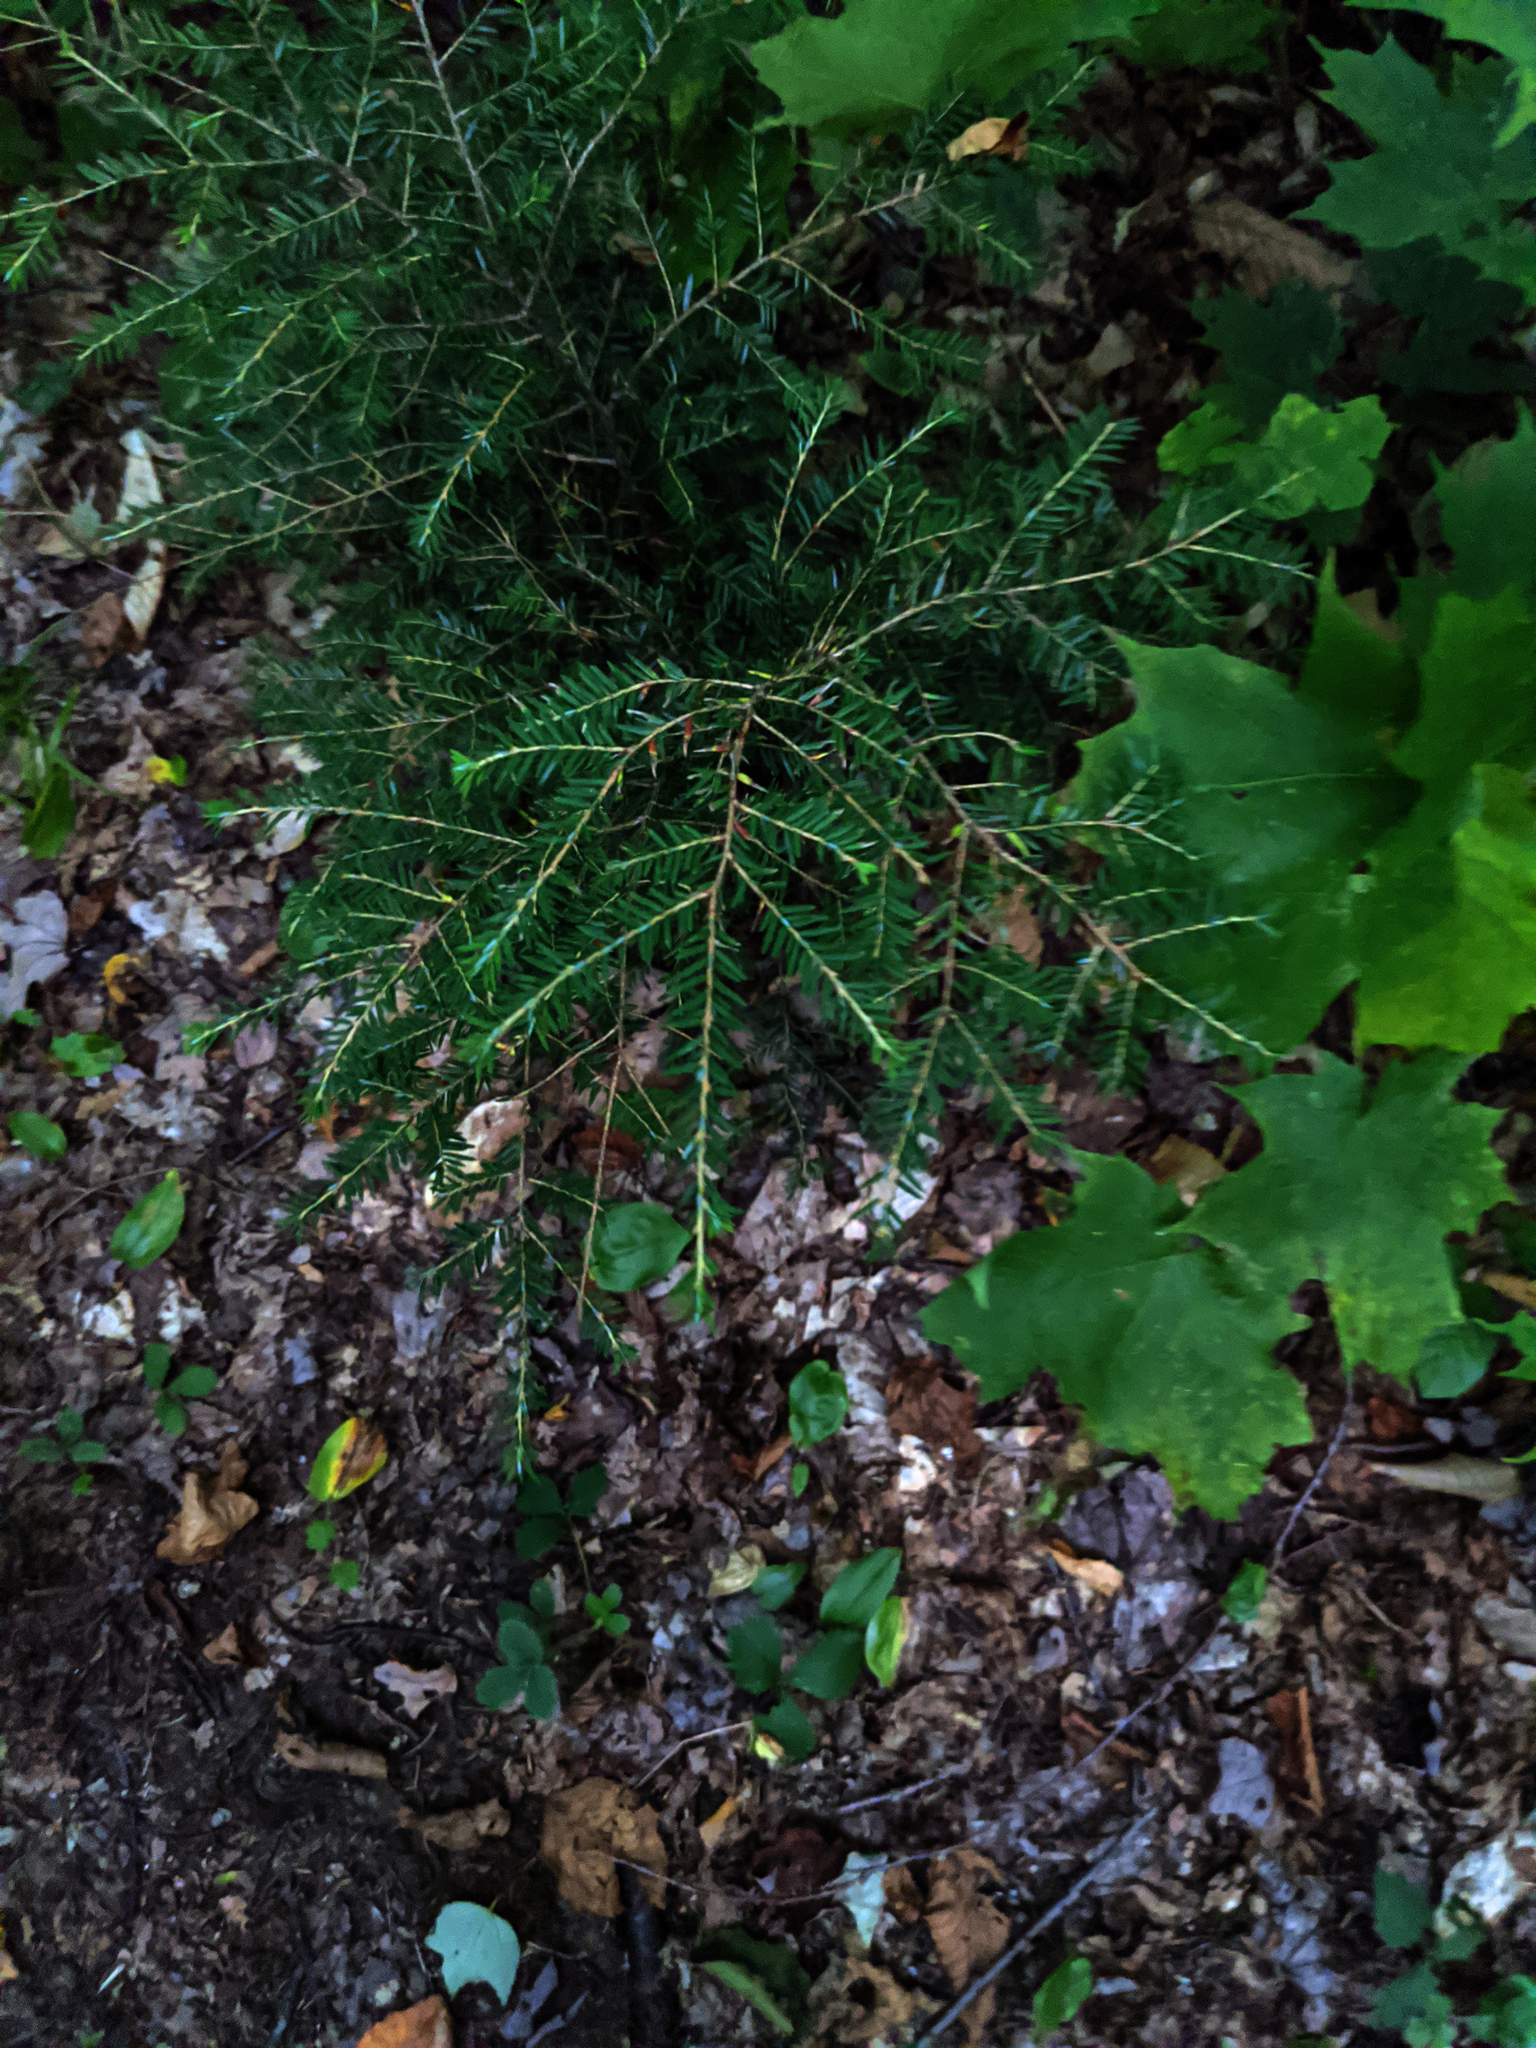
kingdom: Plantae
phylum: Tracheophyta
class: Pinopsida
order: Pinales
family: Pinaceae
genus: Tsuga
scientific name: Tsuga canadensis
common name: Eastern hemlock
